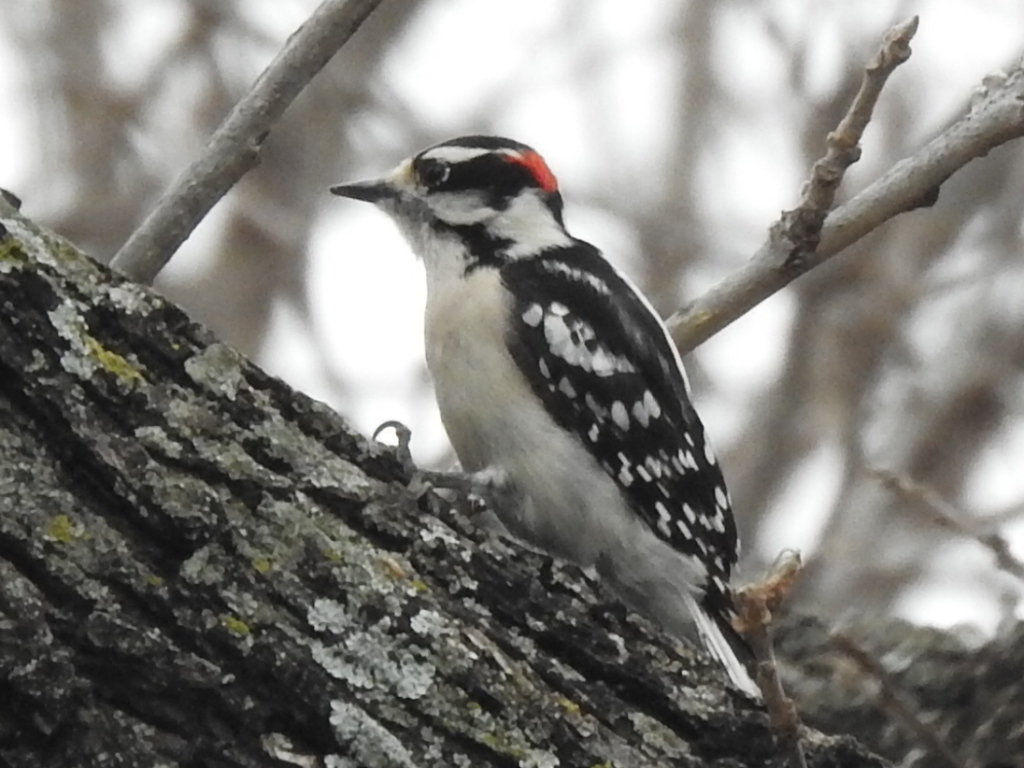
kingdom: Animalia
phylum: Chordata
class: Aves
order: Piciformes
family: Picidae
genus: Dryobates
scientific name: Dryobates pubescens
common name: Downy woodpecker
